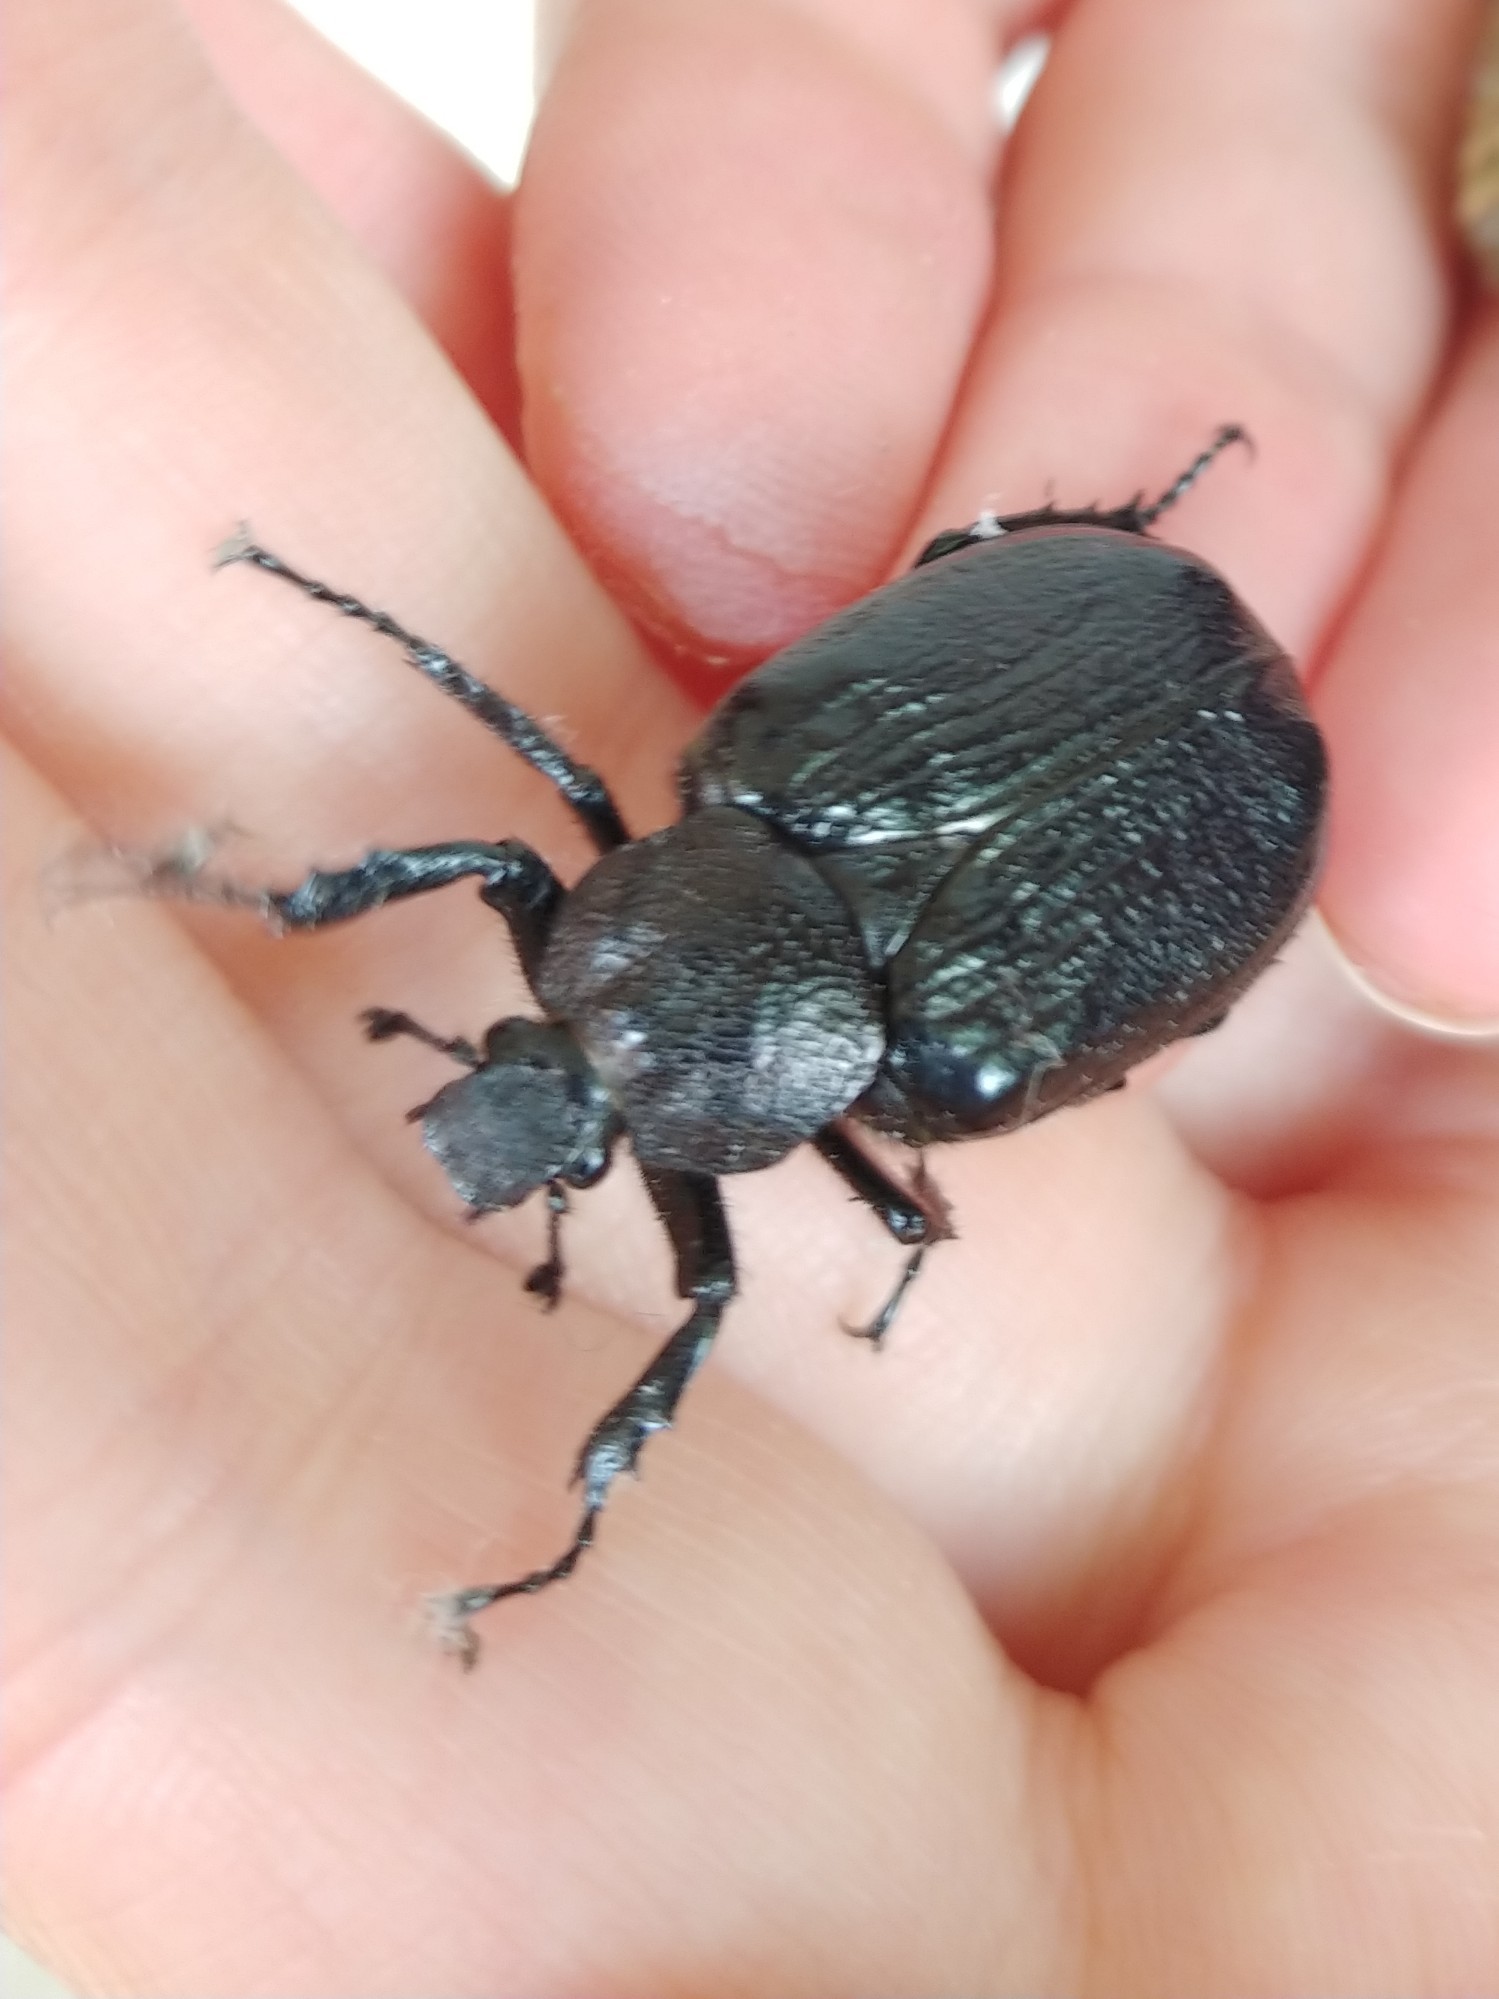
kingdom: Animalia
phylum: Arthropoda
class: Insecta
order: Coleoptera
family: Scarabaeidae
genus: Osmoderma
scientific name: Osmoderma scabra
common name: Rough hermit beetle
